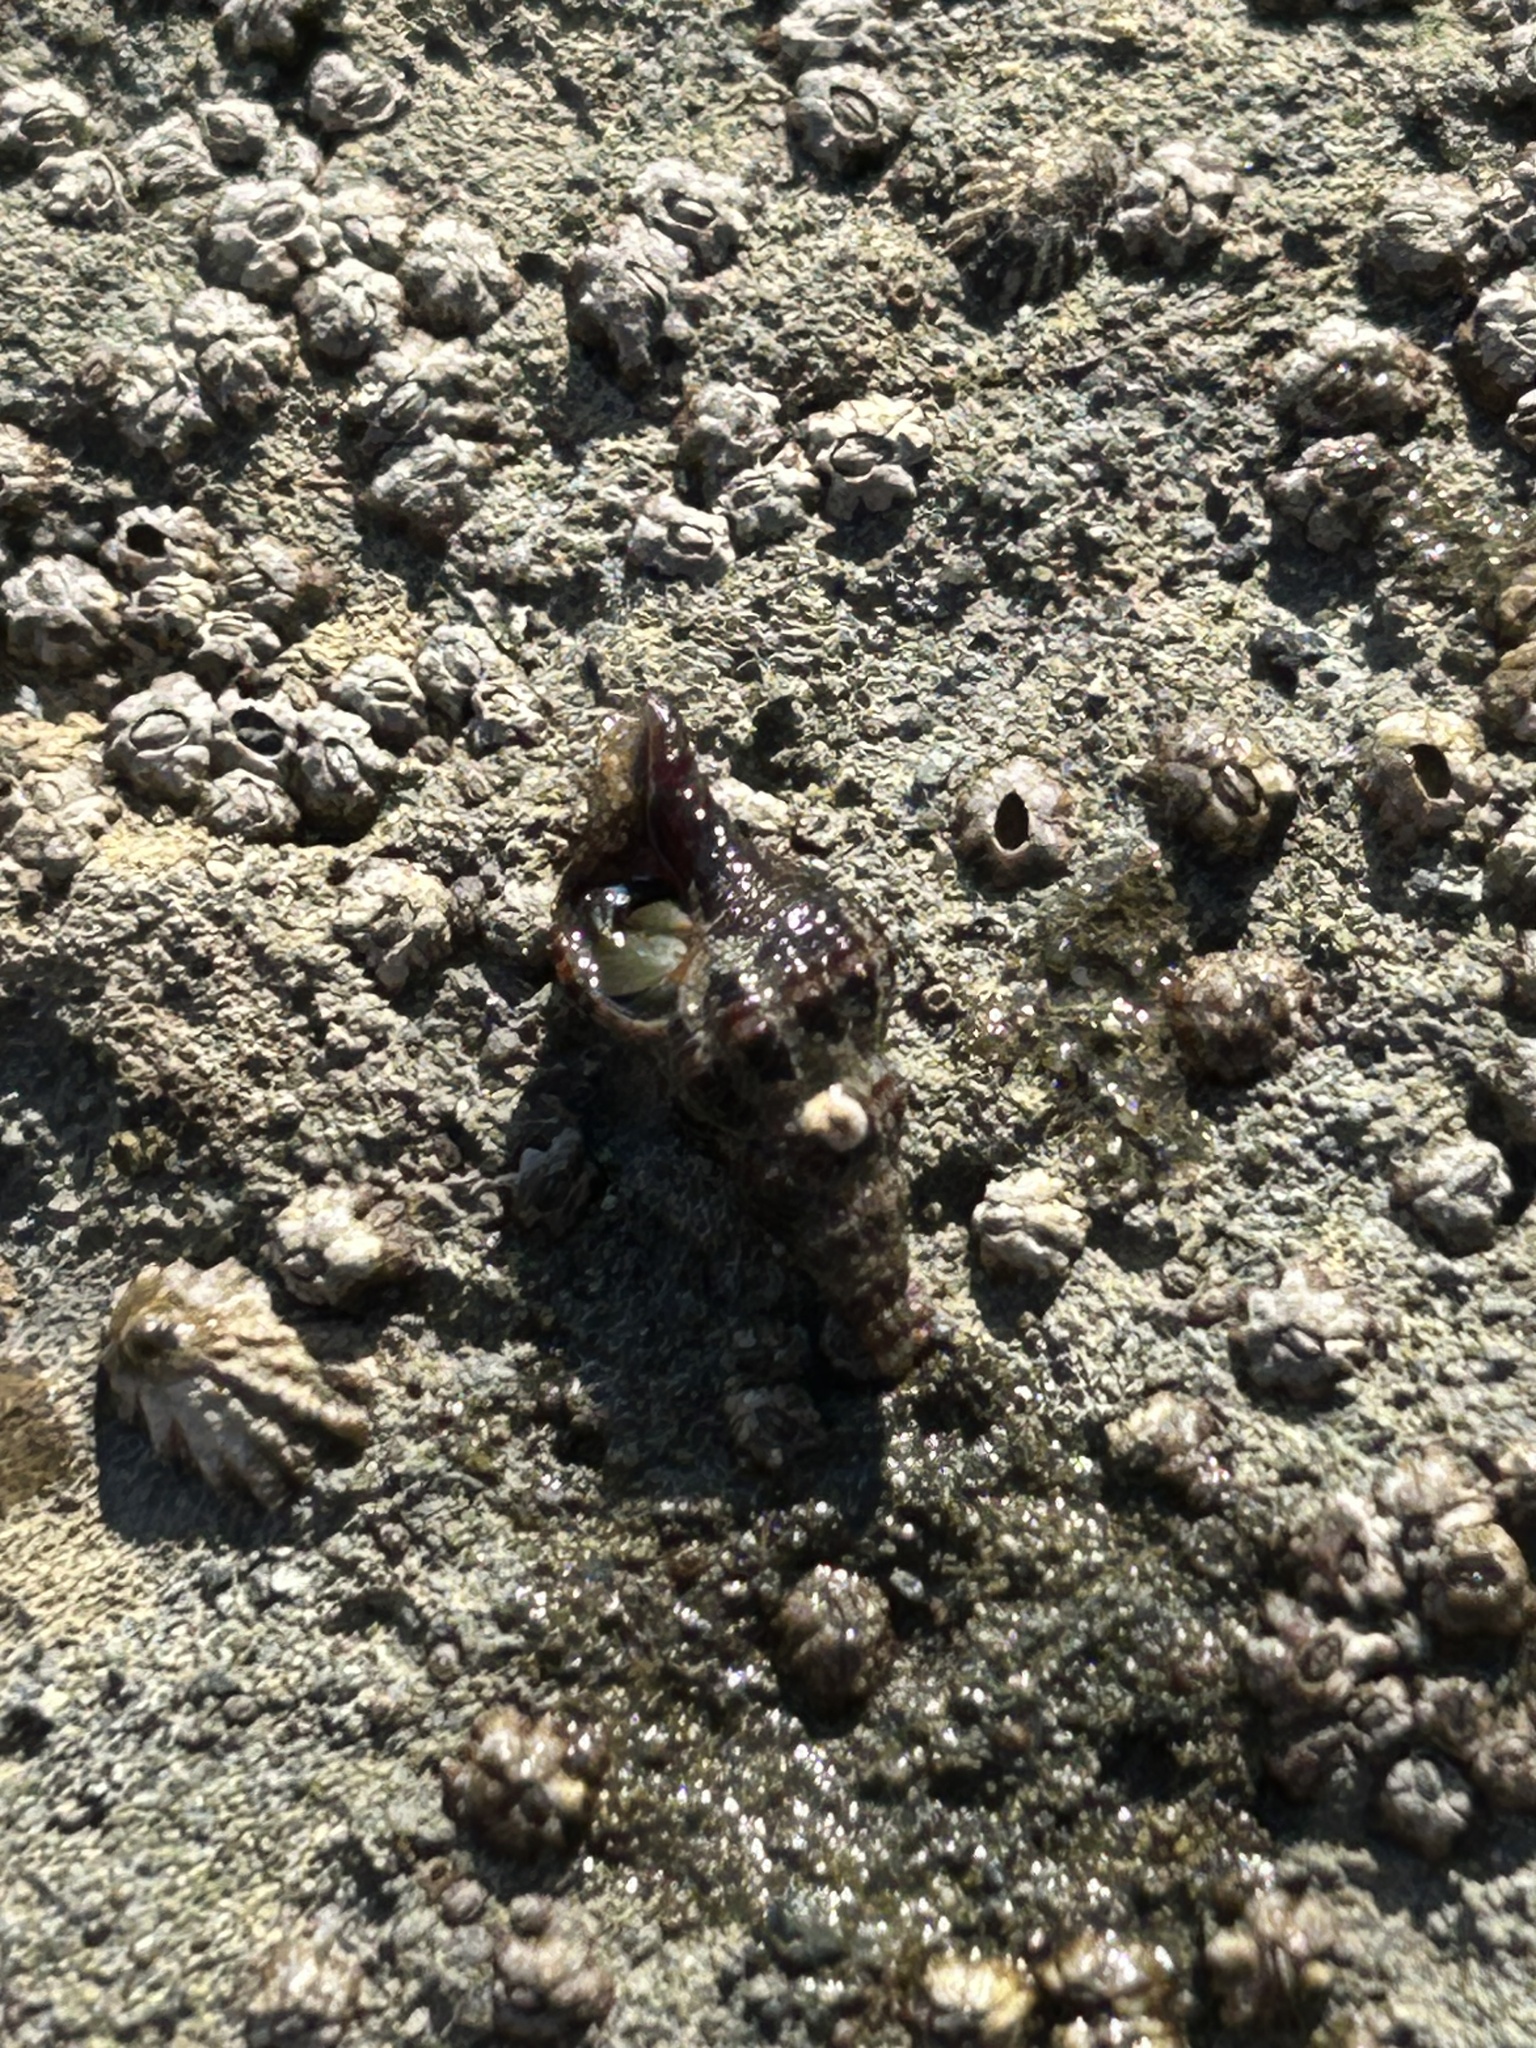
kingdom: Animalia
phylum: Mollusca
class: Gastropoda
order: Neogastropoda
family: Fasciolariidae
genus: Hesperaptyxis
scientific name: Hesperaptyxis luteopictus
